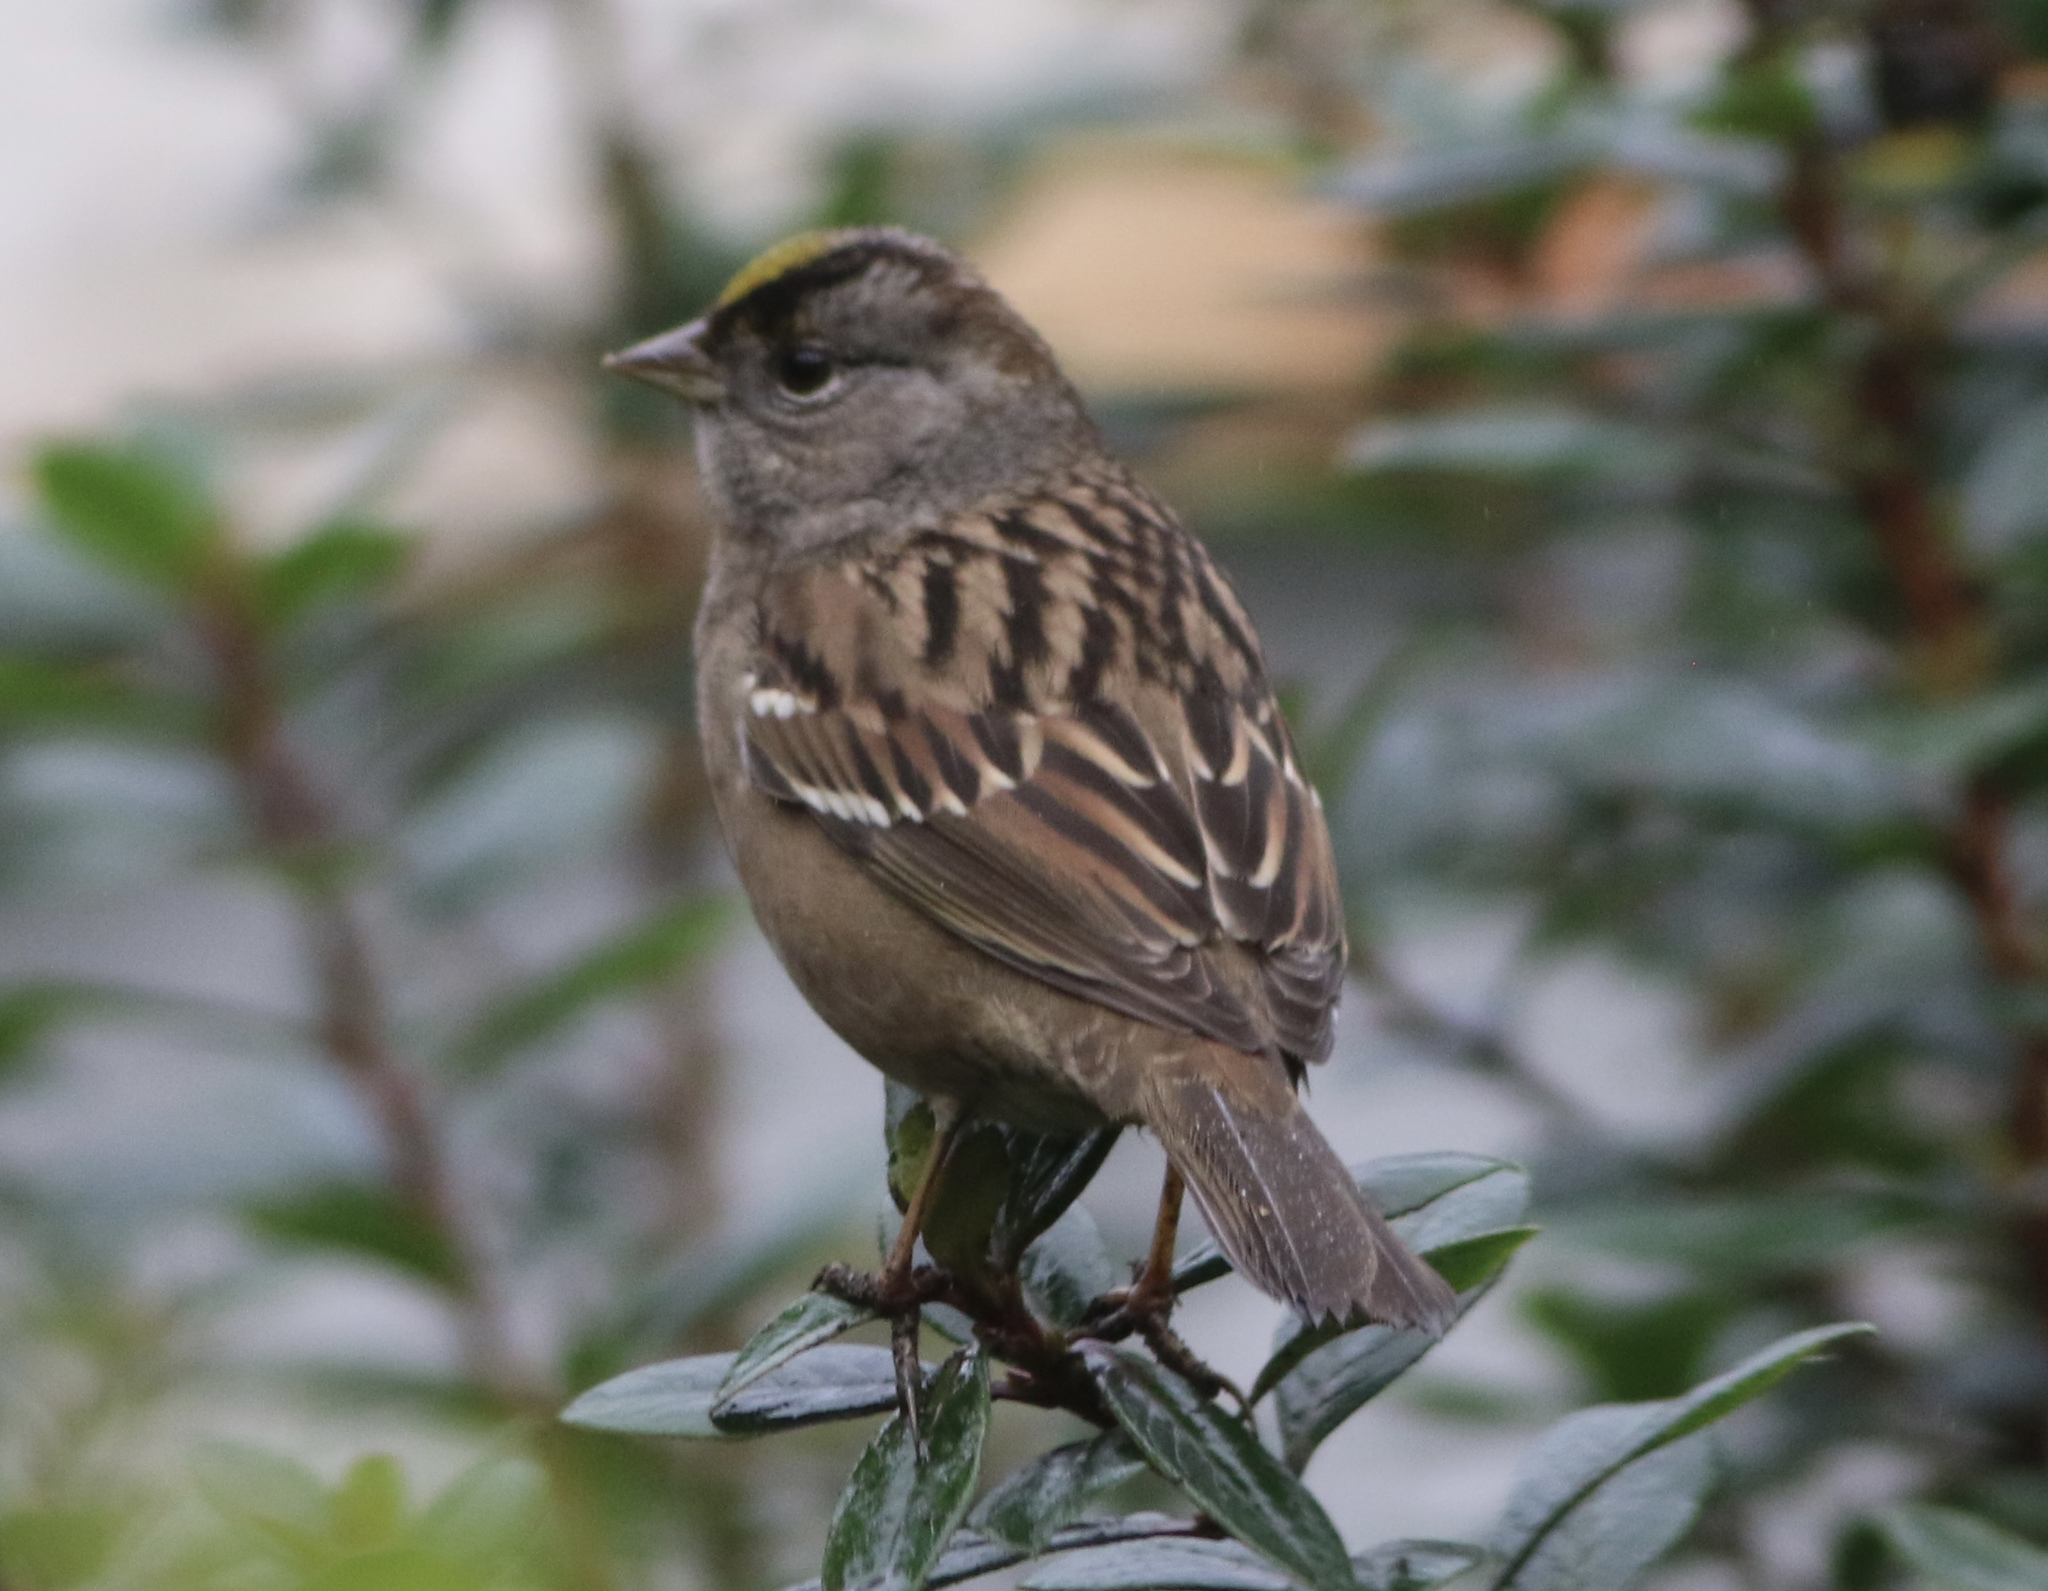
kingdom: Animalia
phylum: Chordata
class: Aves
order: Passeriformes
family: Passerellidae
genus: Zonotrichia
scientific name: Zonotrichia atricapilla
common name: Golden-crowned sparrow
